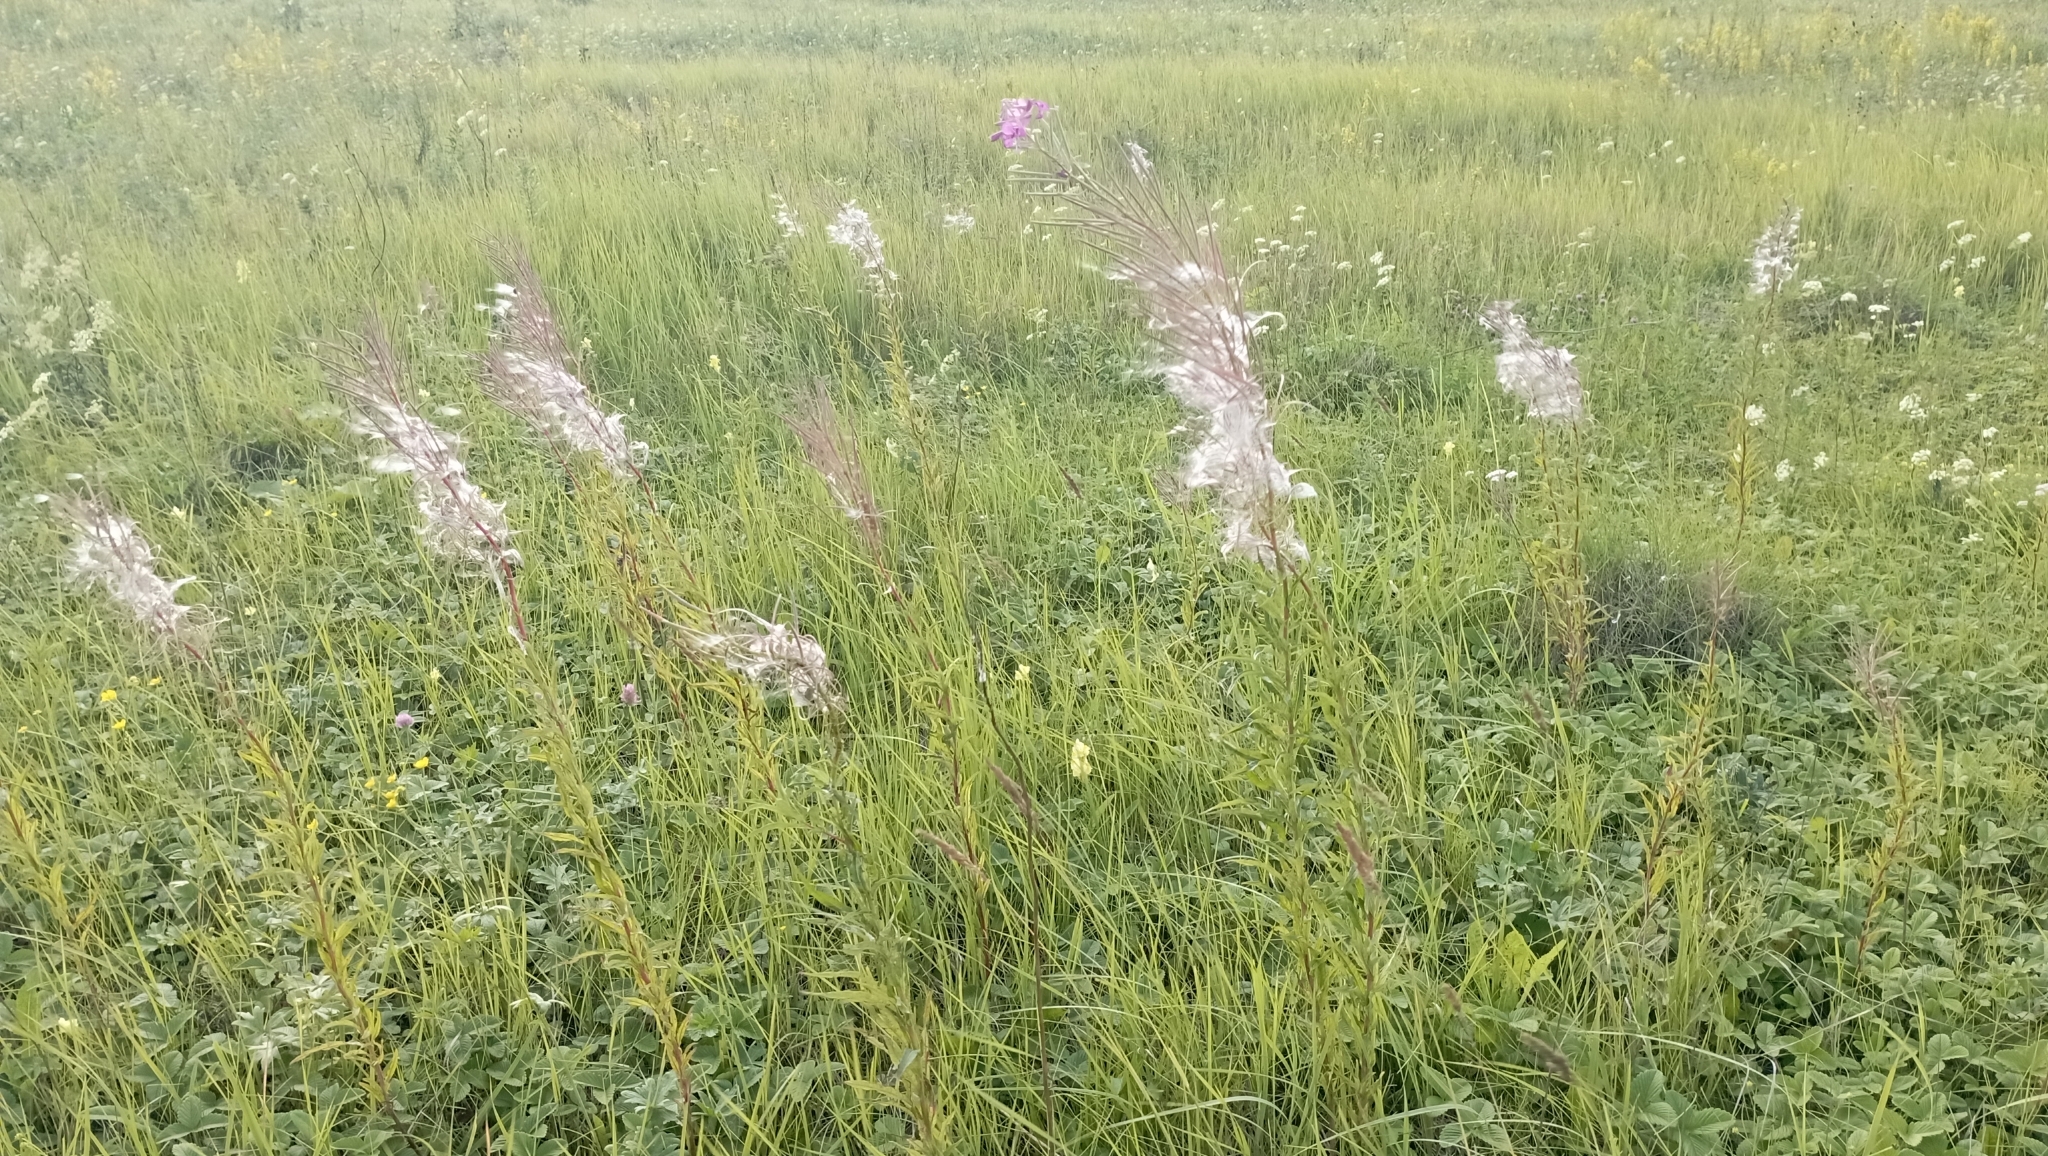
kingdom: Plantae
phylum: Tracheophyta
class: Magnoliopsida
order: Myrtales
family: Onagraceae
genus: Chamaenerion
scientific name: Chamaenerion angustifolium
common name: Fireweed
